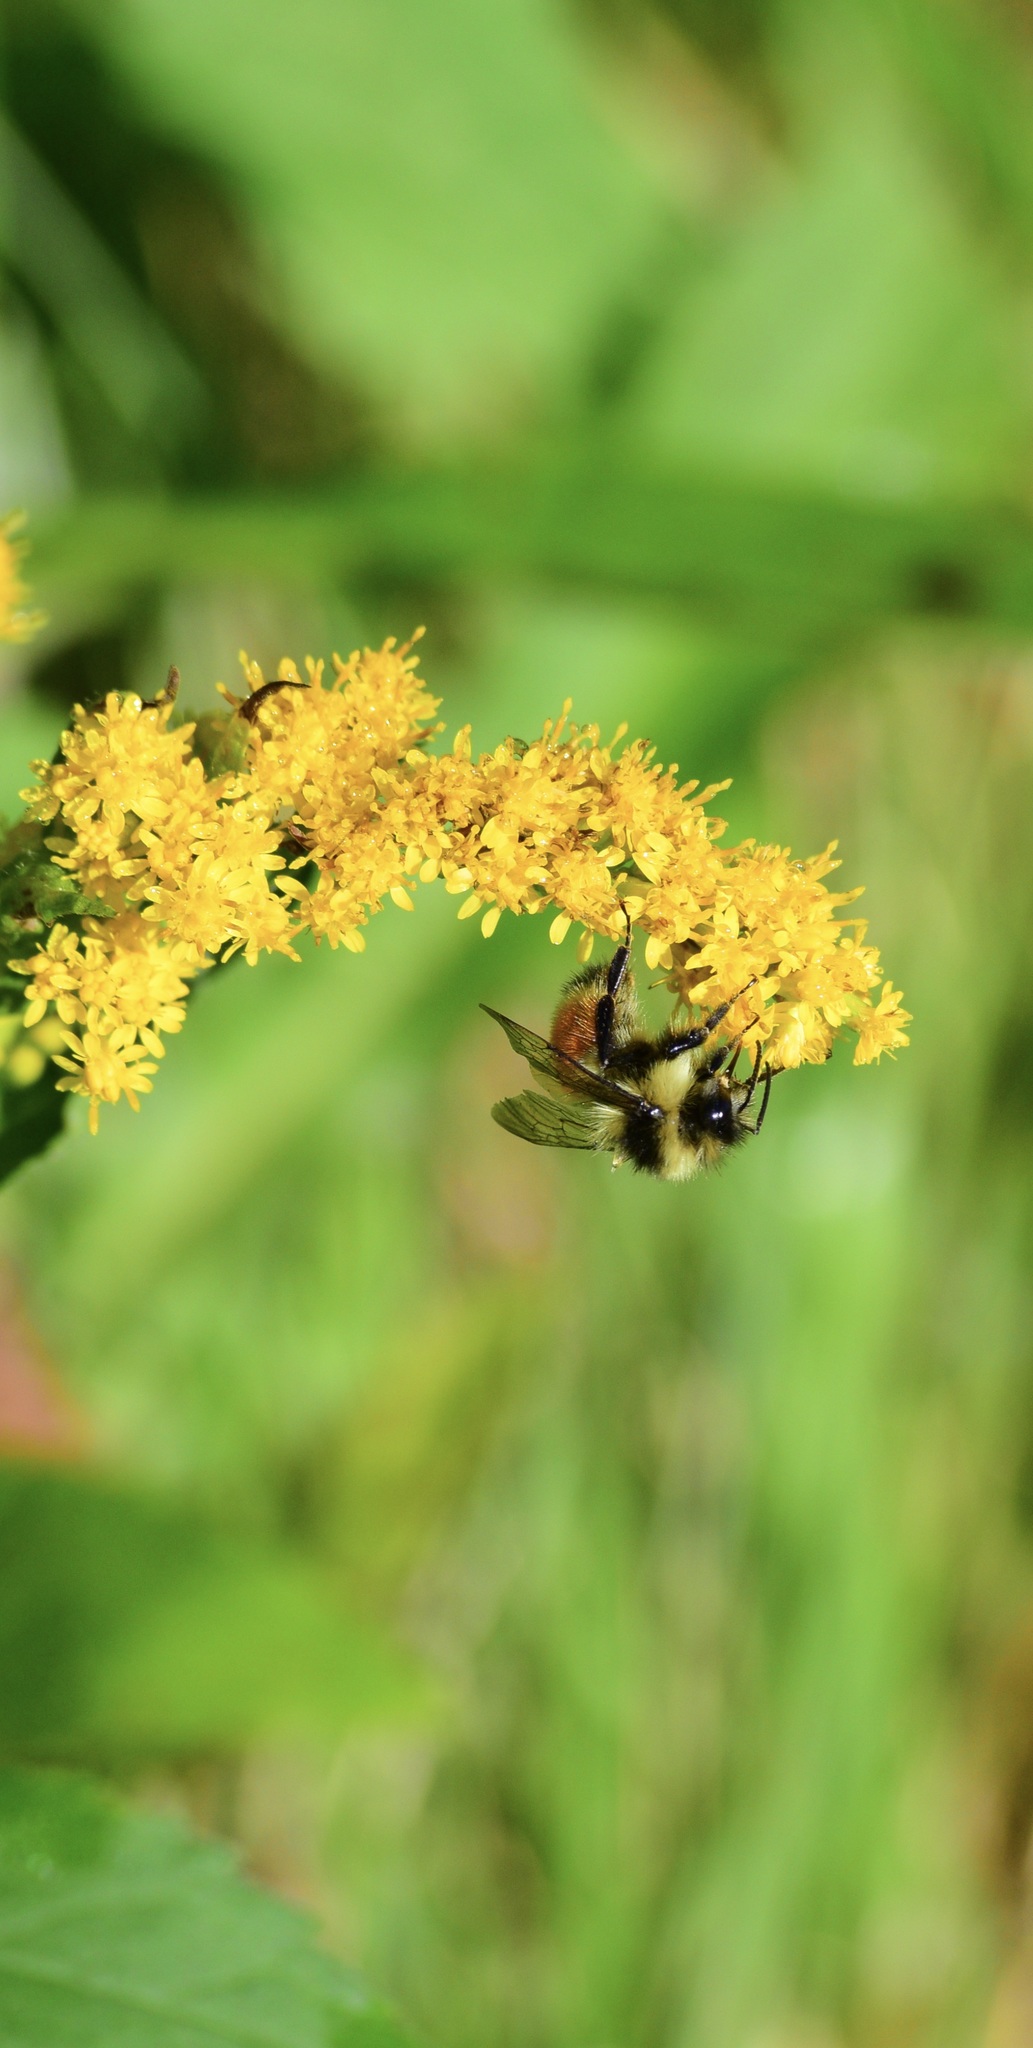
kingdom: Animalia
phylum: Arthropoda
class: Insecta
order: Hymenoptera
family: Apidae
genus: Bombus
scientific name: Bombus ternarius
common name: Tri-colored bumble bee
